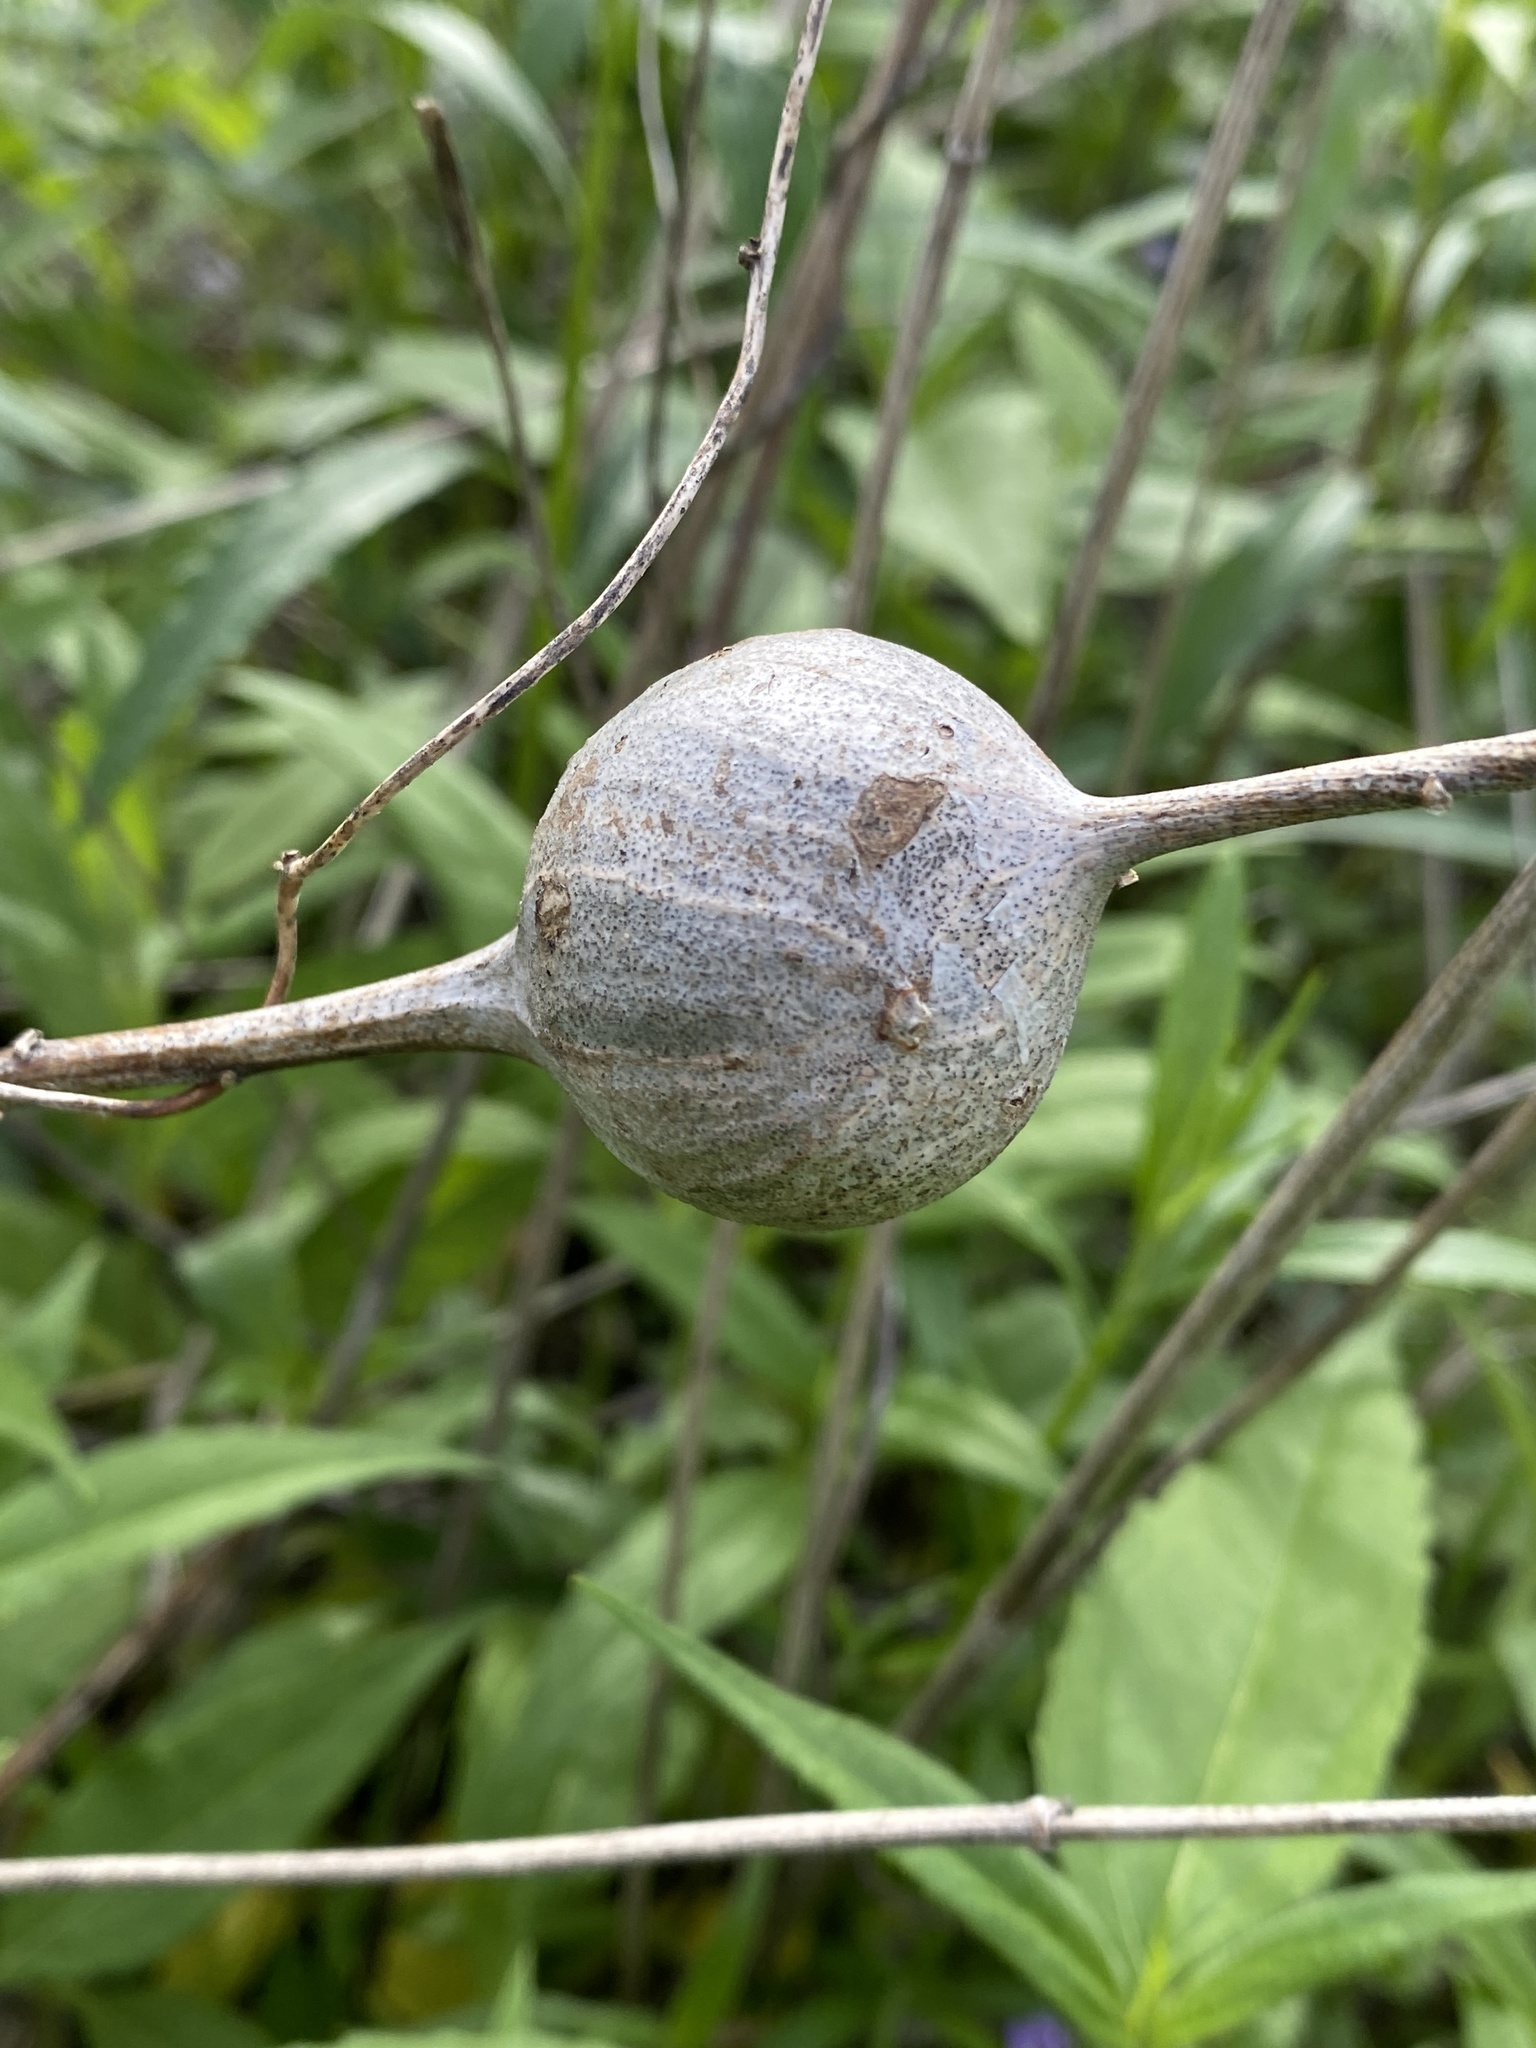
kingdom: Animalia
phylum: Arthropoda
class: Insecta
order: Diptera
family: Tephritidae
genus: Eurosta
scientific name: Eurosta solidaginis
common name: Goldenrod gall fly
